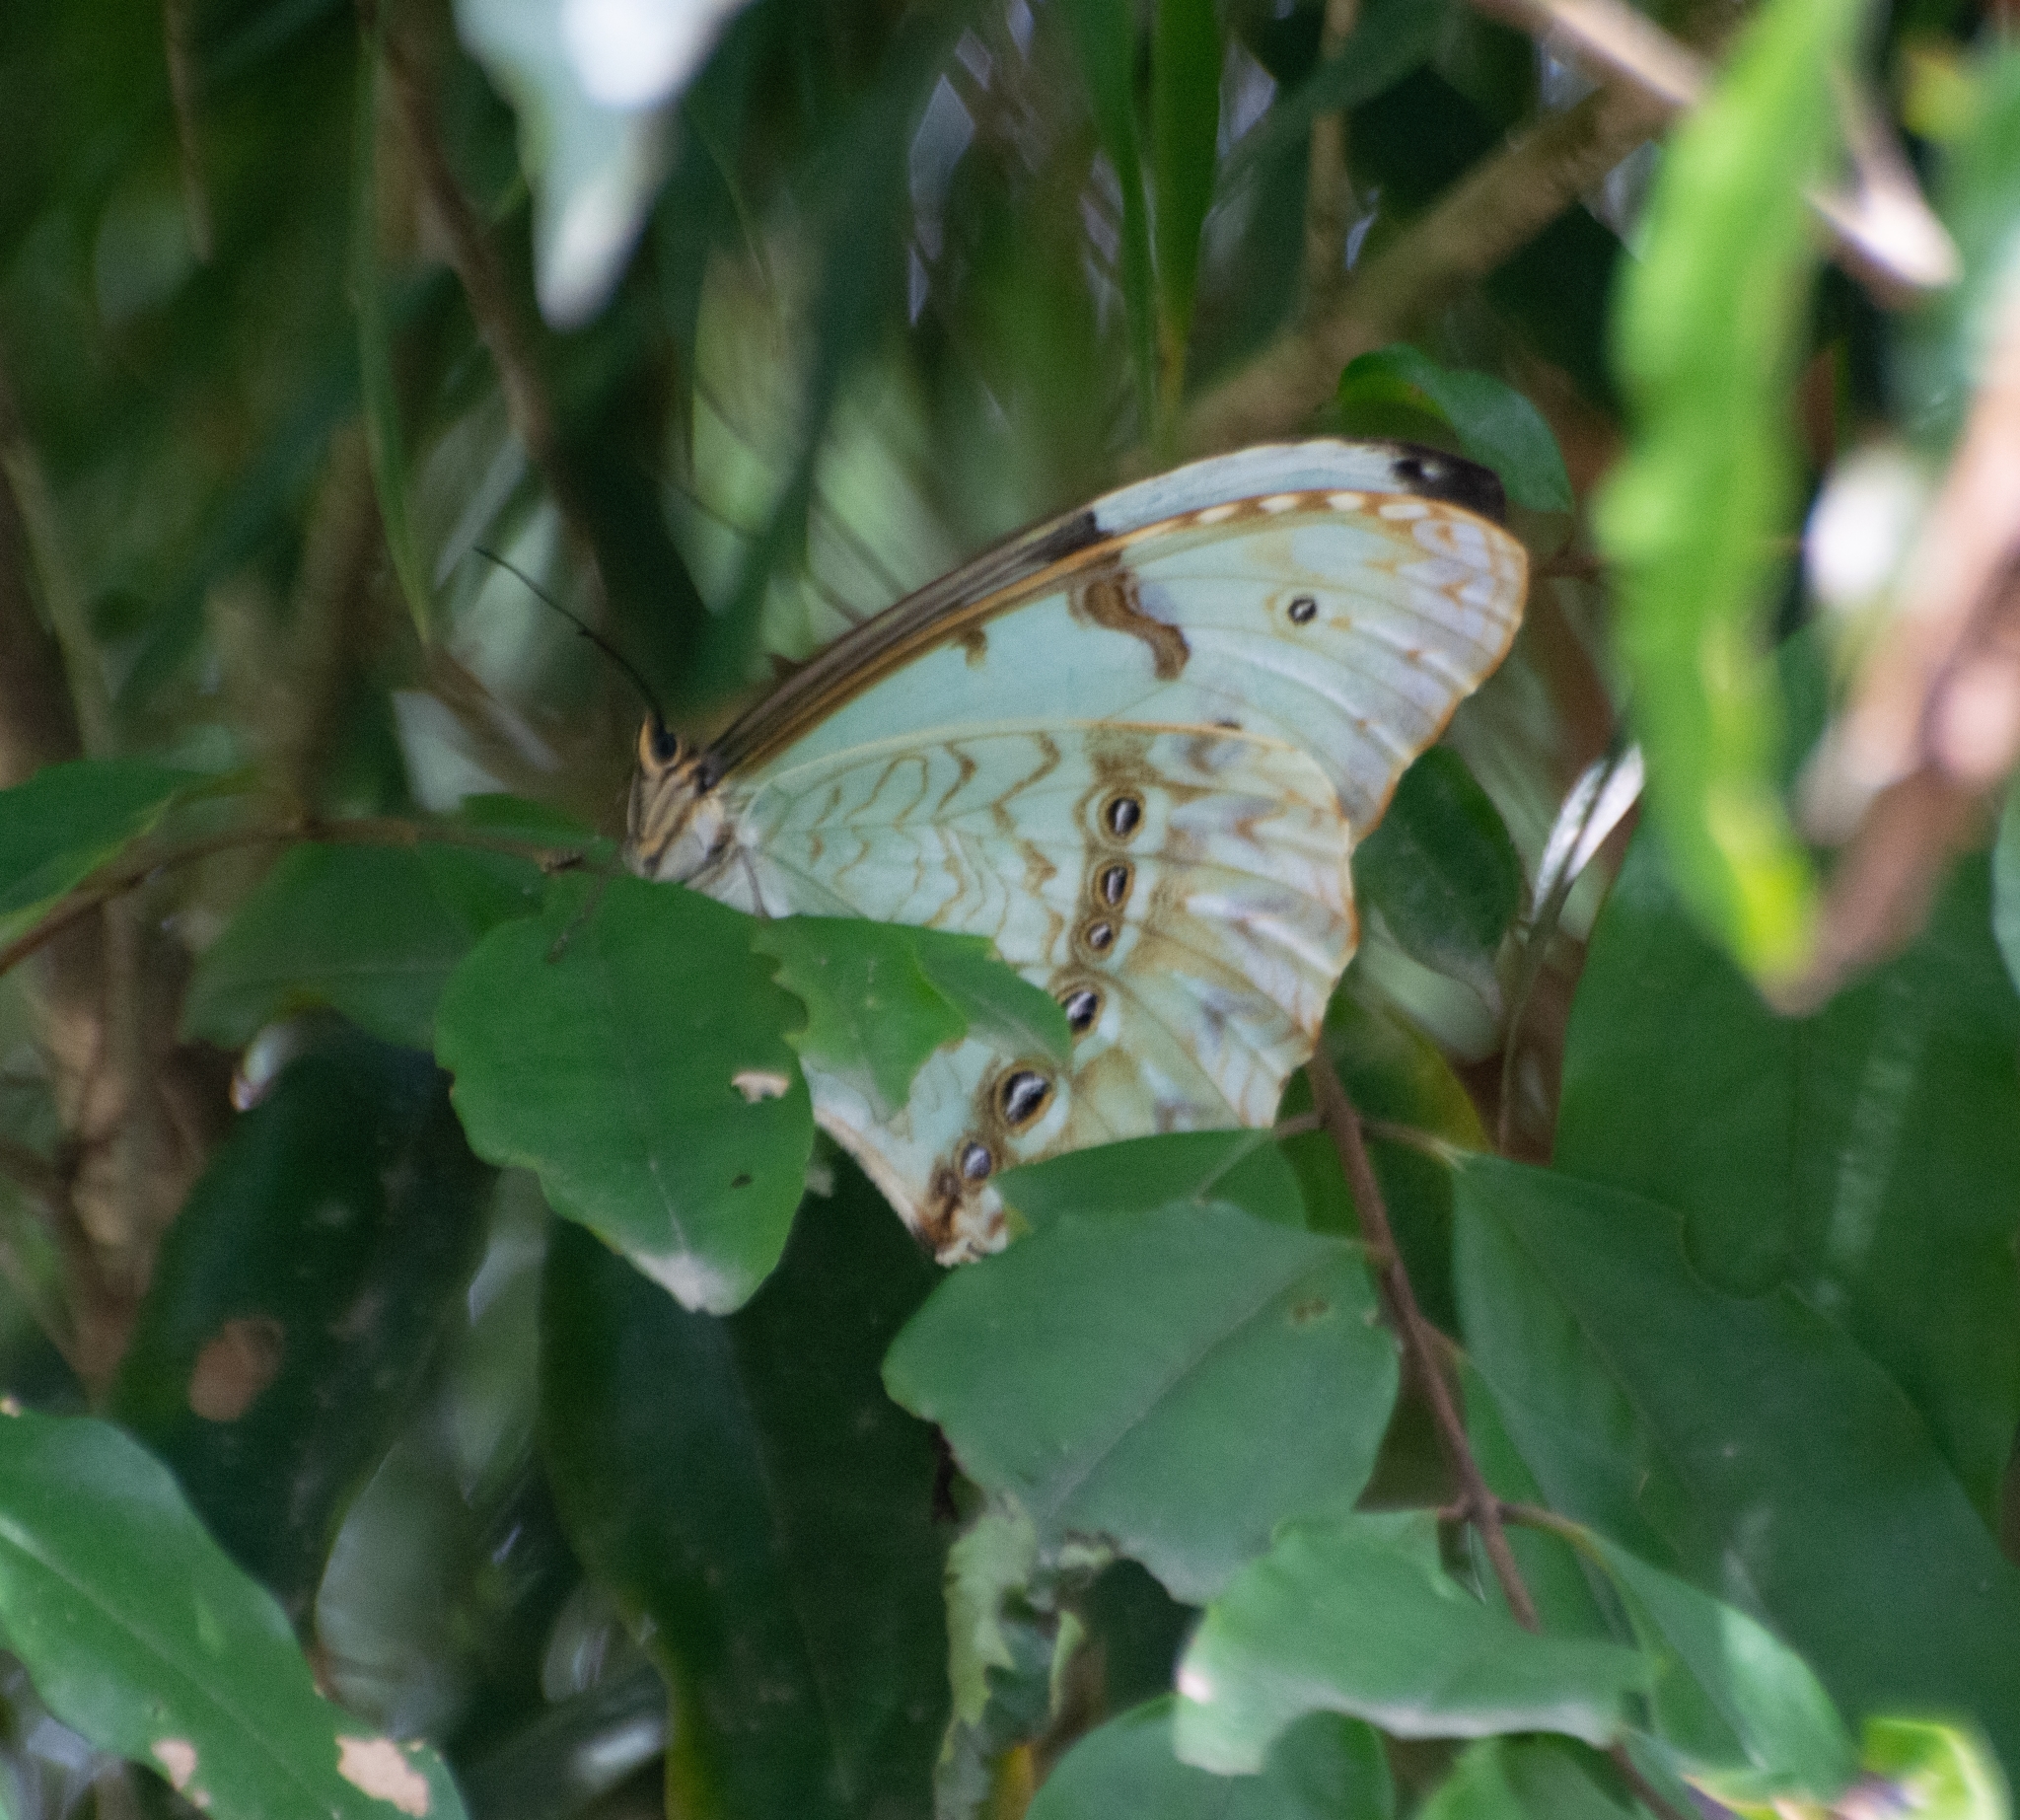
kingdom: Animalia
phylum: Arthropoda
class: Insecta
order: Lepidoptera
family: Nymphalidae
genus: Morpho
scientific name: Morpho epistrophus
